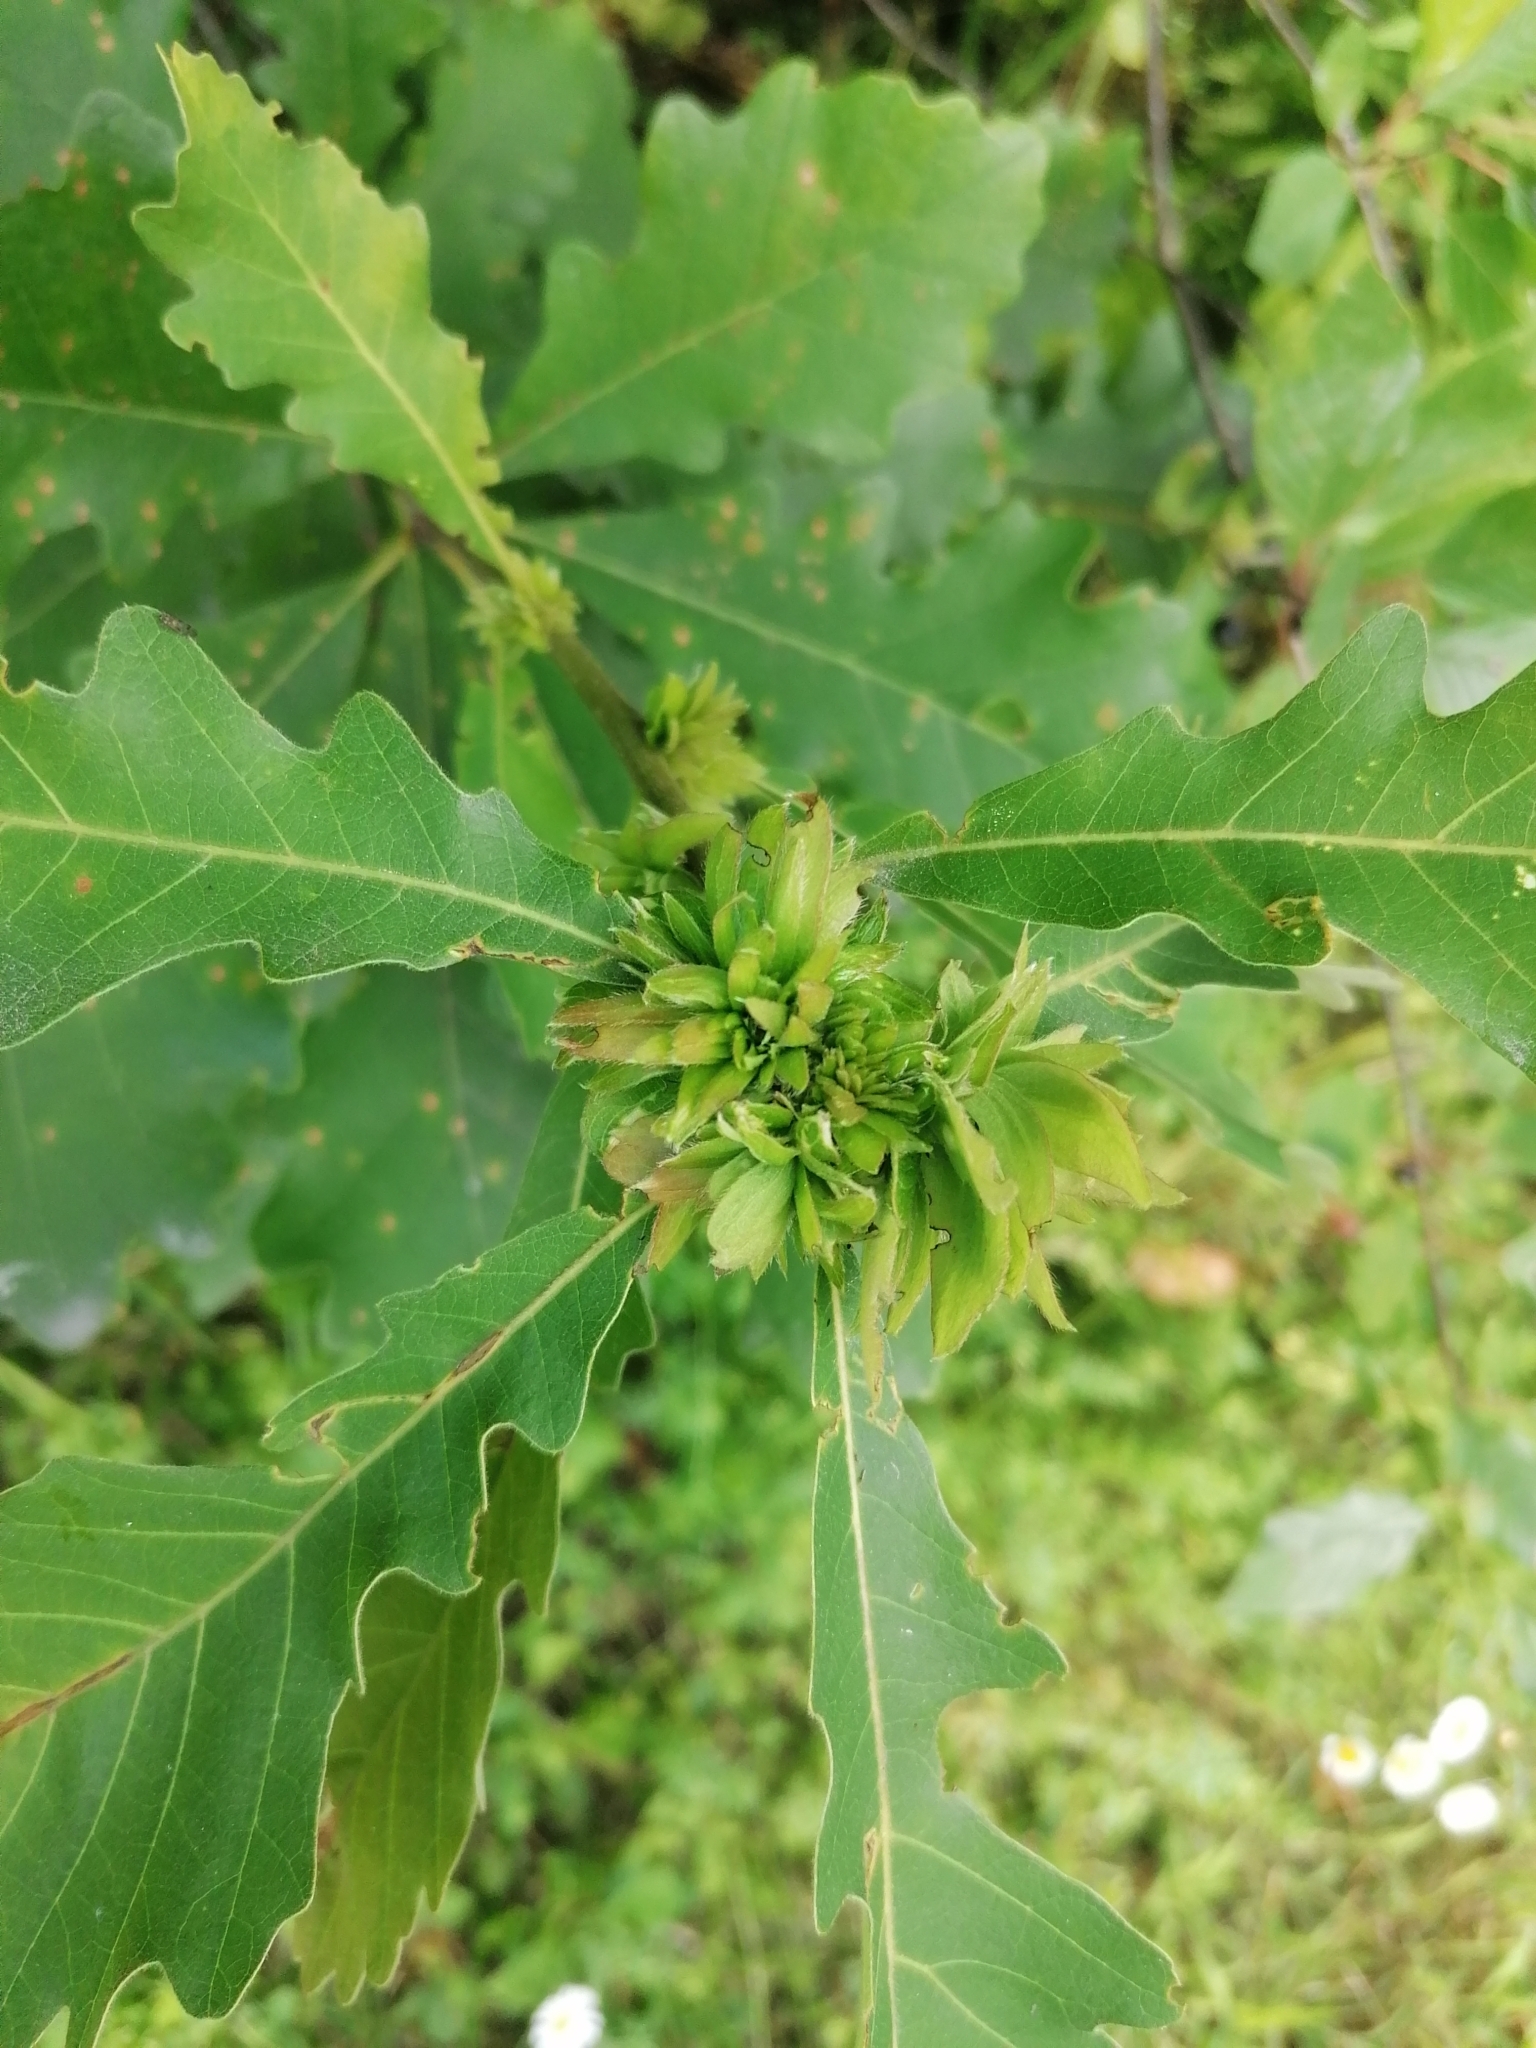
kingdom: Animalia
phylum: Arthropoda
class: Insecta
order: Hymenoptera
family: Cynipidae
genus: Andricus
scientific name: Andricus
